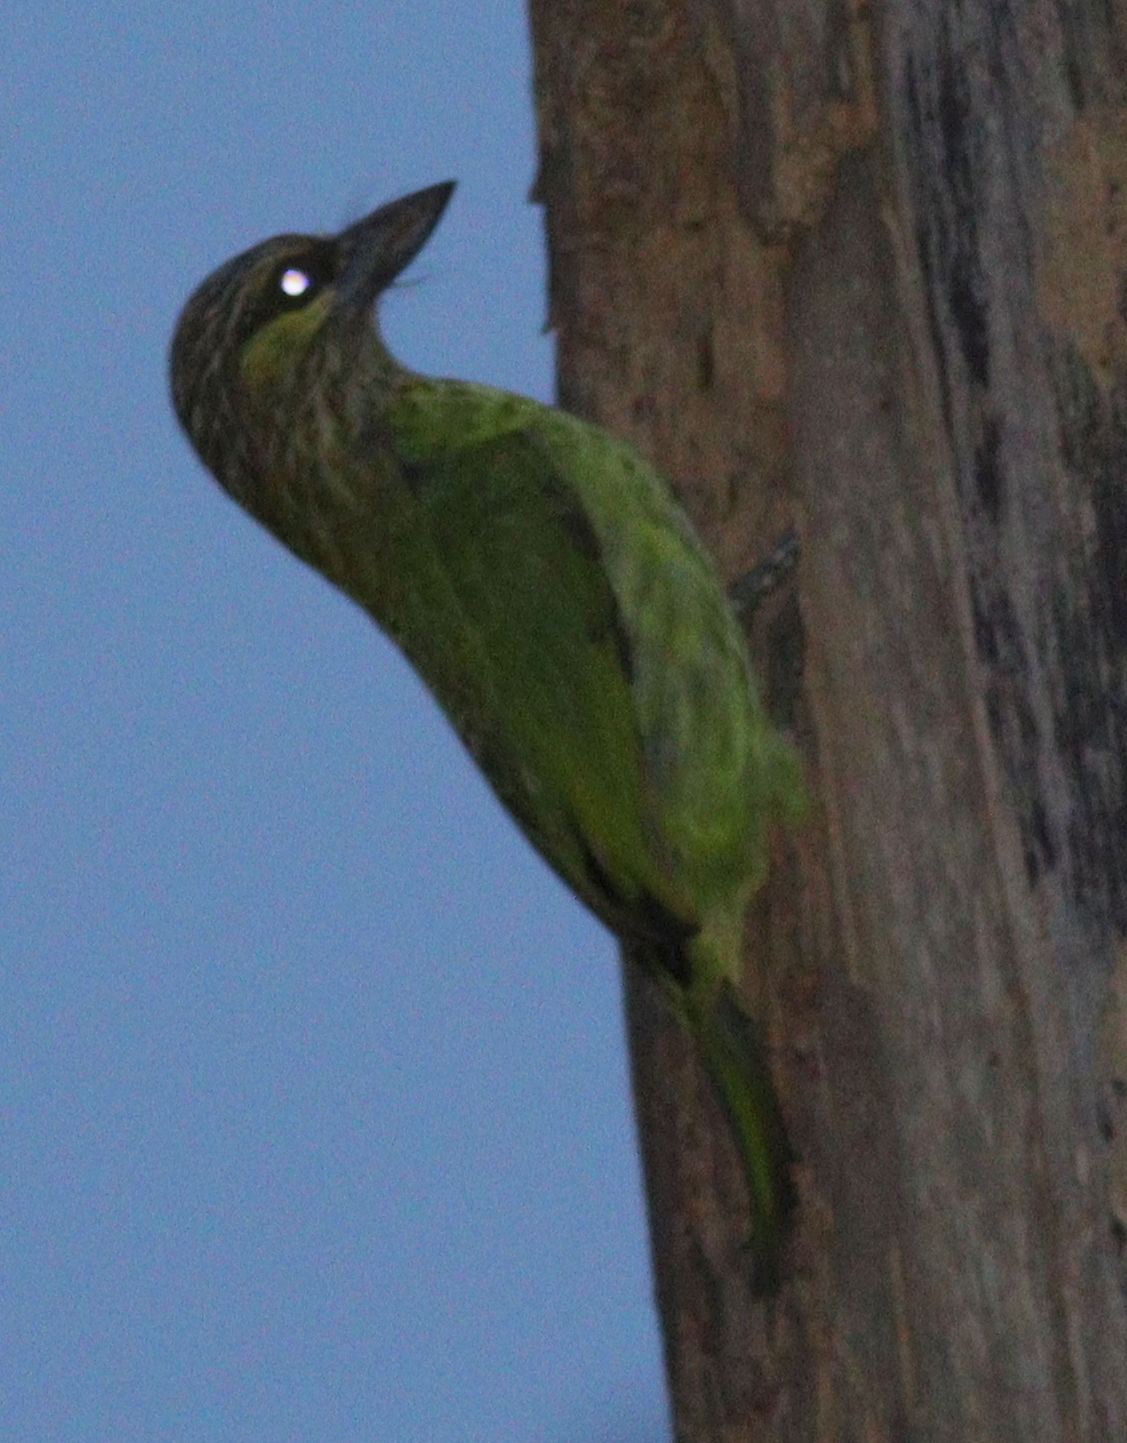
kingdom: Animalia
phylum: Chordata
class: Aves
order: Piciformes
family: Megalaimidae
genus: Psilopogon
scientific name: Psilopogon faiostrictus
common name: Green-eared barbet
